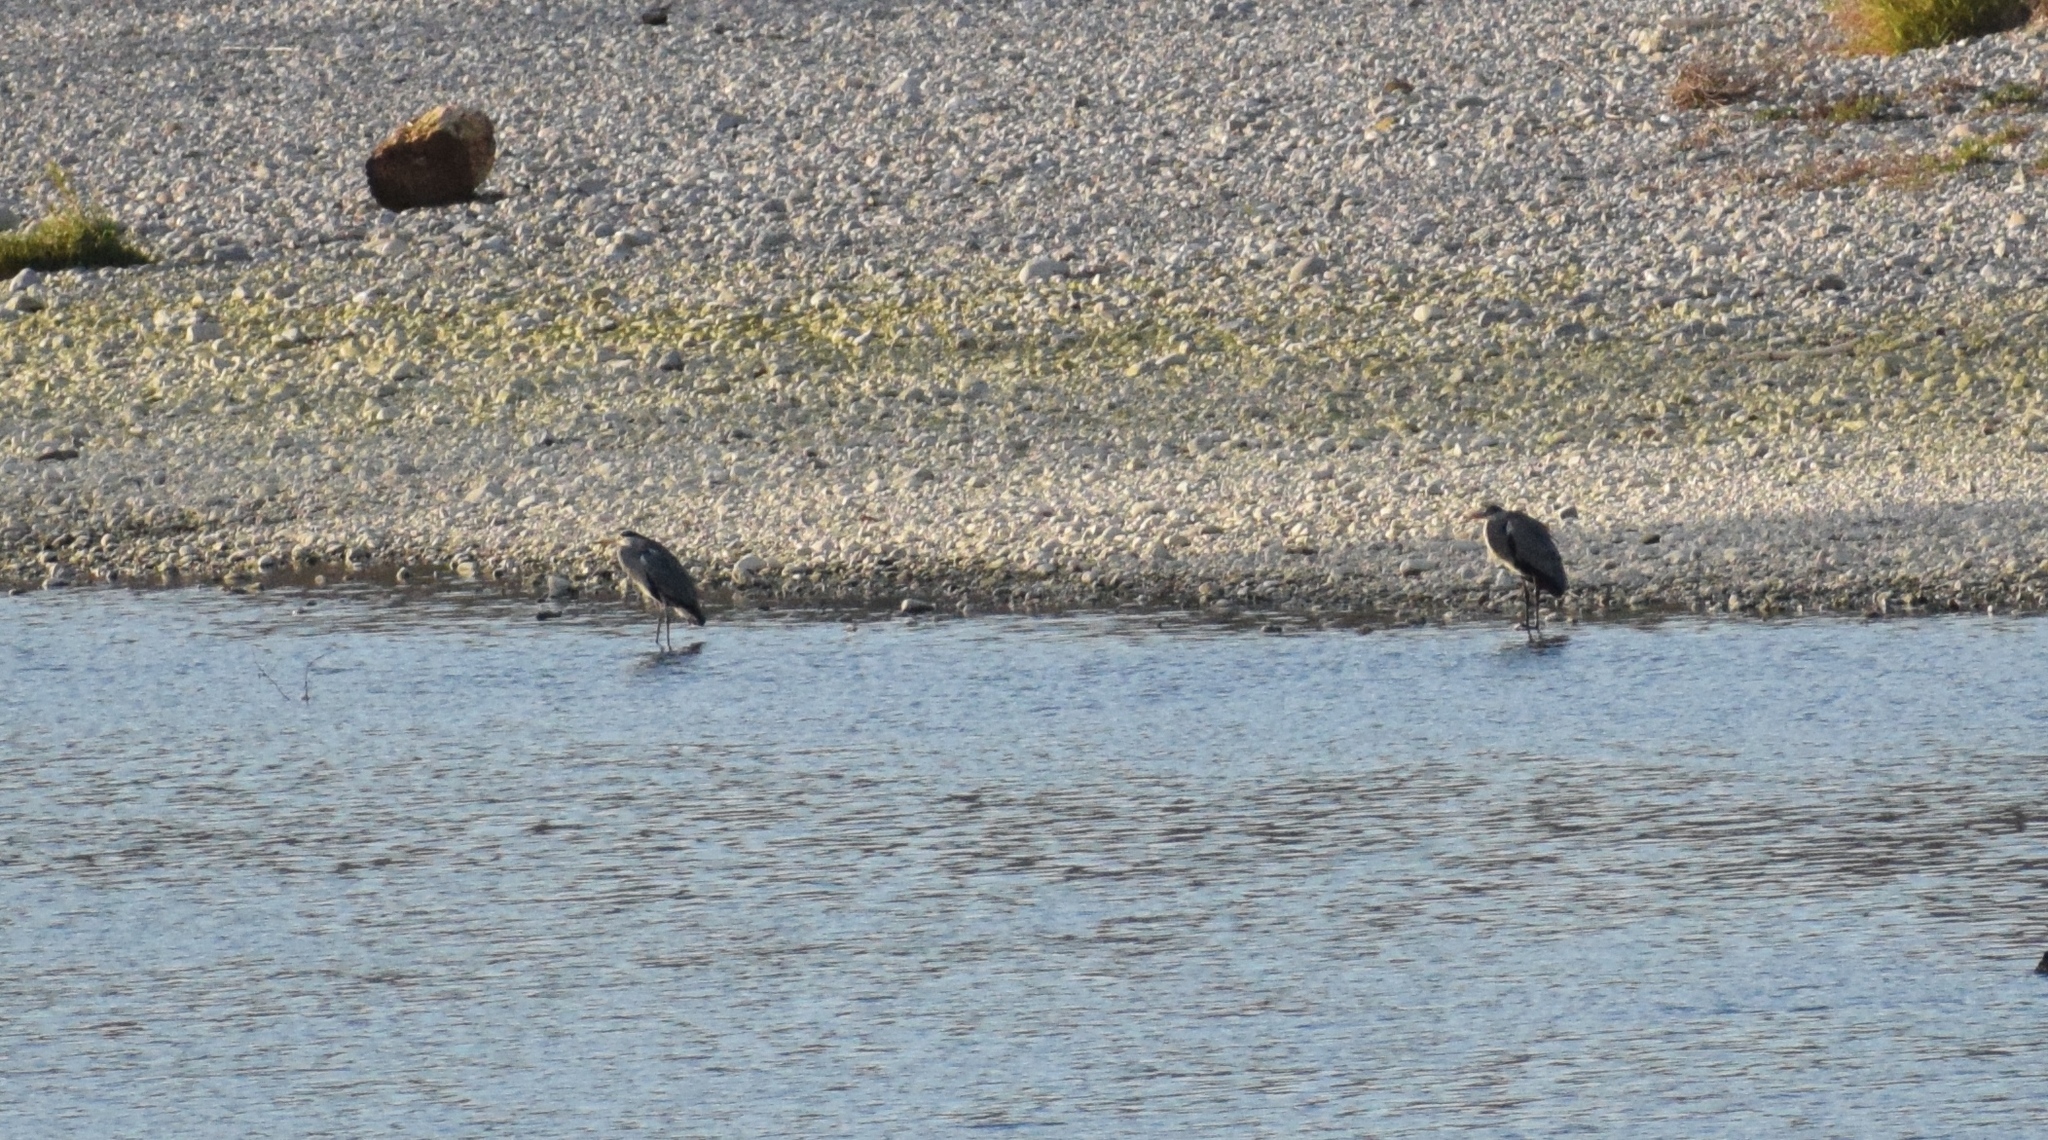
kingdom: Animalia
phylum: Chordata
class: Aves
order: Pelecaniformes
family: Ardeidae
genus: Ardea
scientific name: Ardea cinerea
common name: Grey heron
